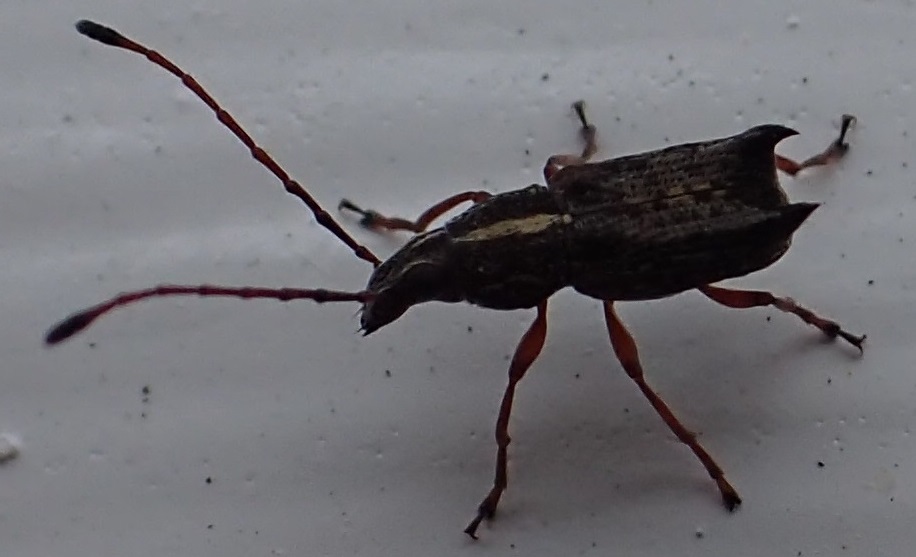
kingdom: Animalia
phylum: Arthropoda
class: Insecta
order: Coleoptera
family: Anthribidae
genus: Commista
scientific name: Commista bispina
